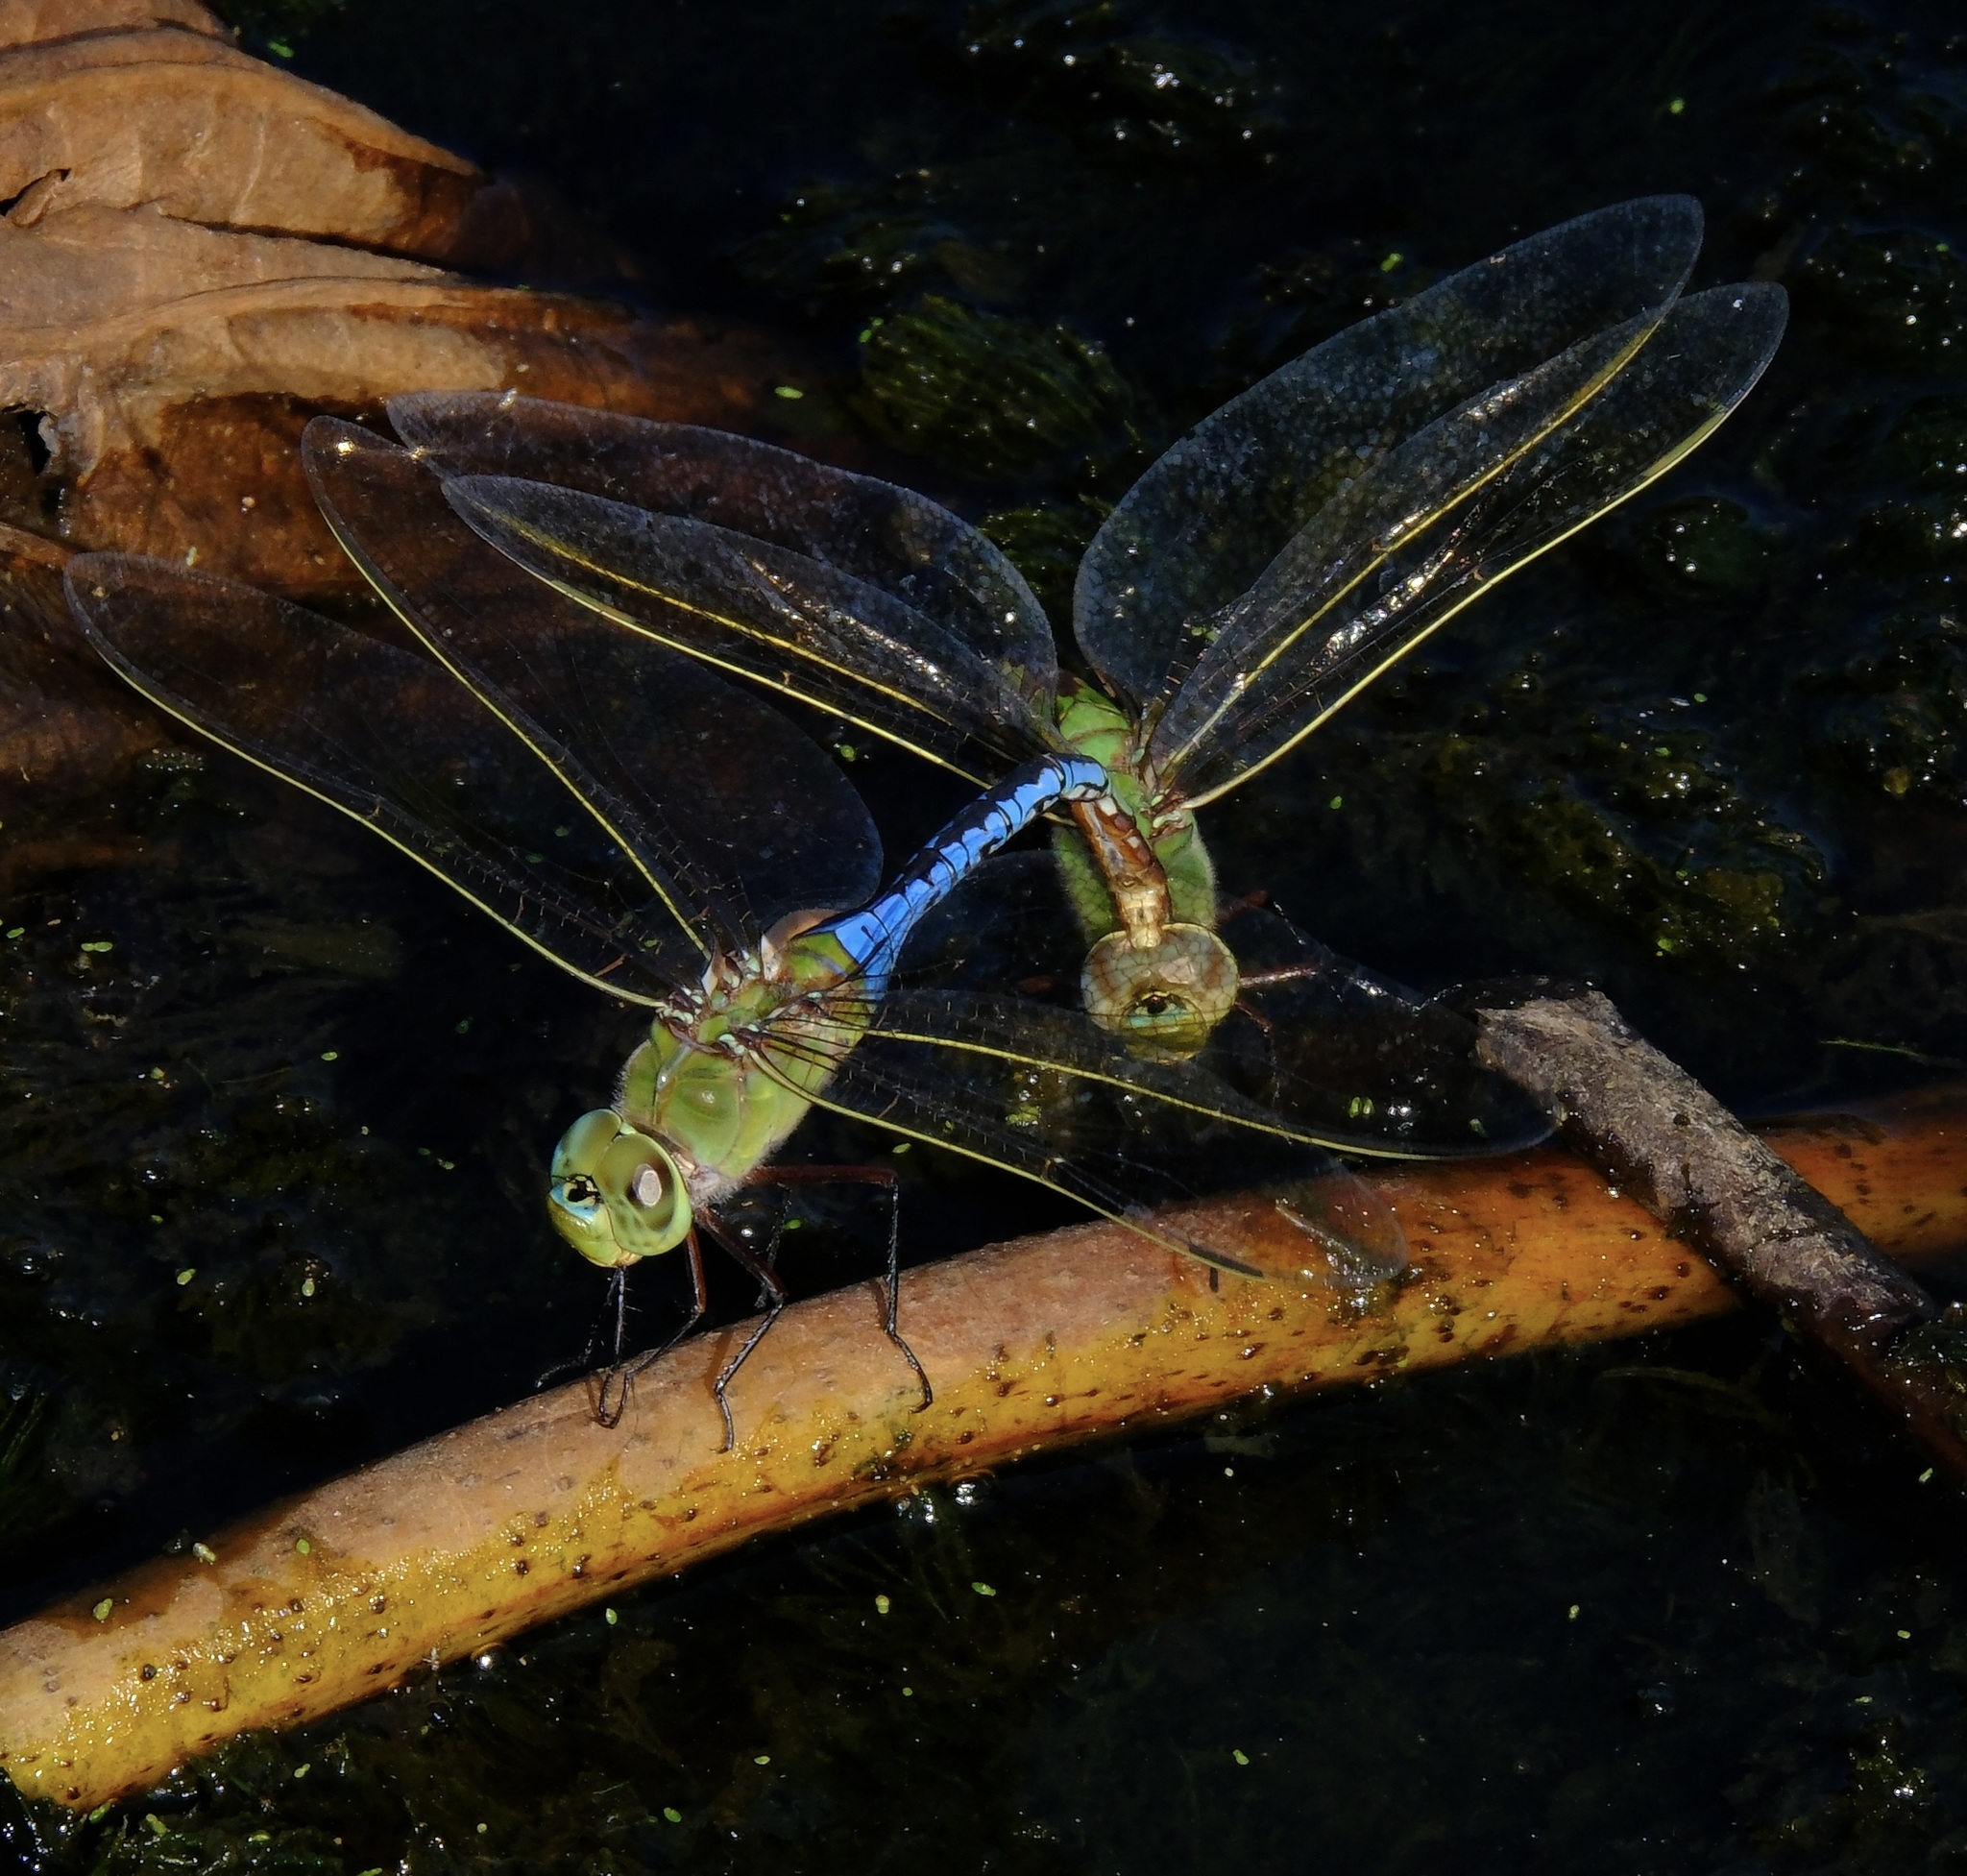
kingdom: Animalia
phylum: Arthropoda
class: Insecta
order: Odonata
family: Aeshnidae
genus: Anax
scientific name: Anax junius
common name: Common green darner
